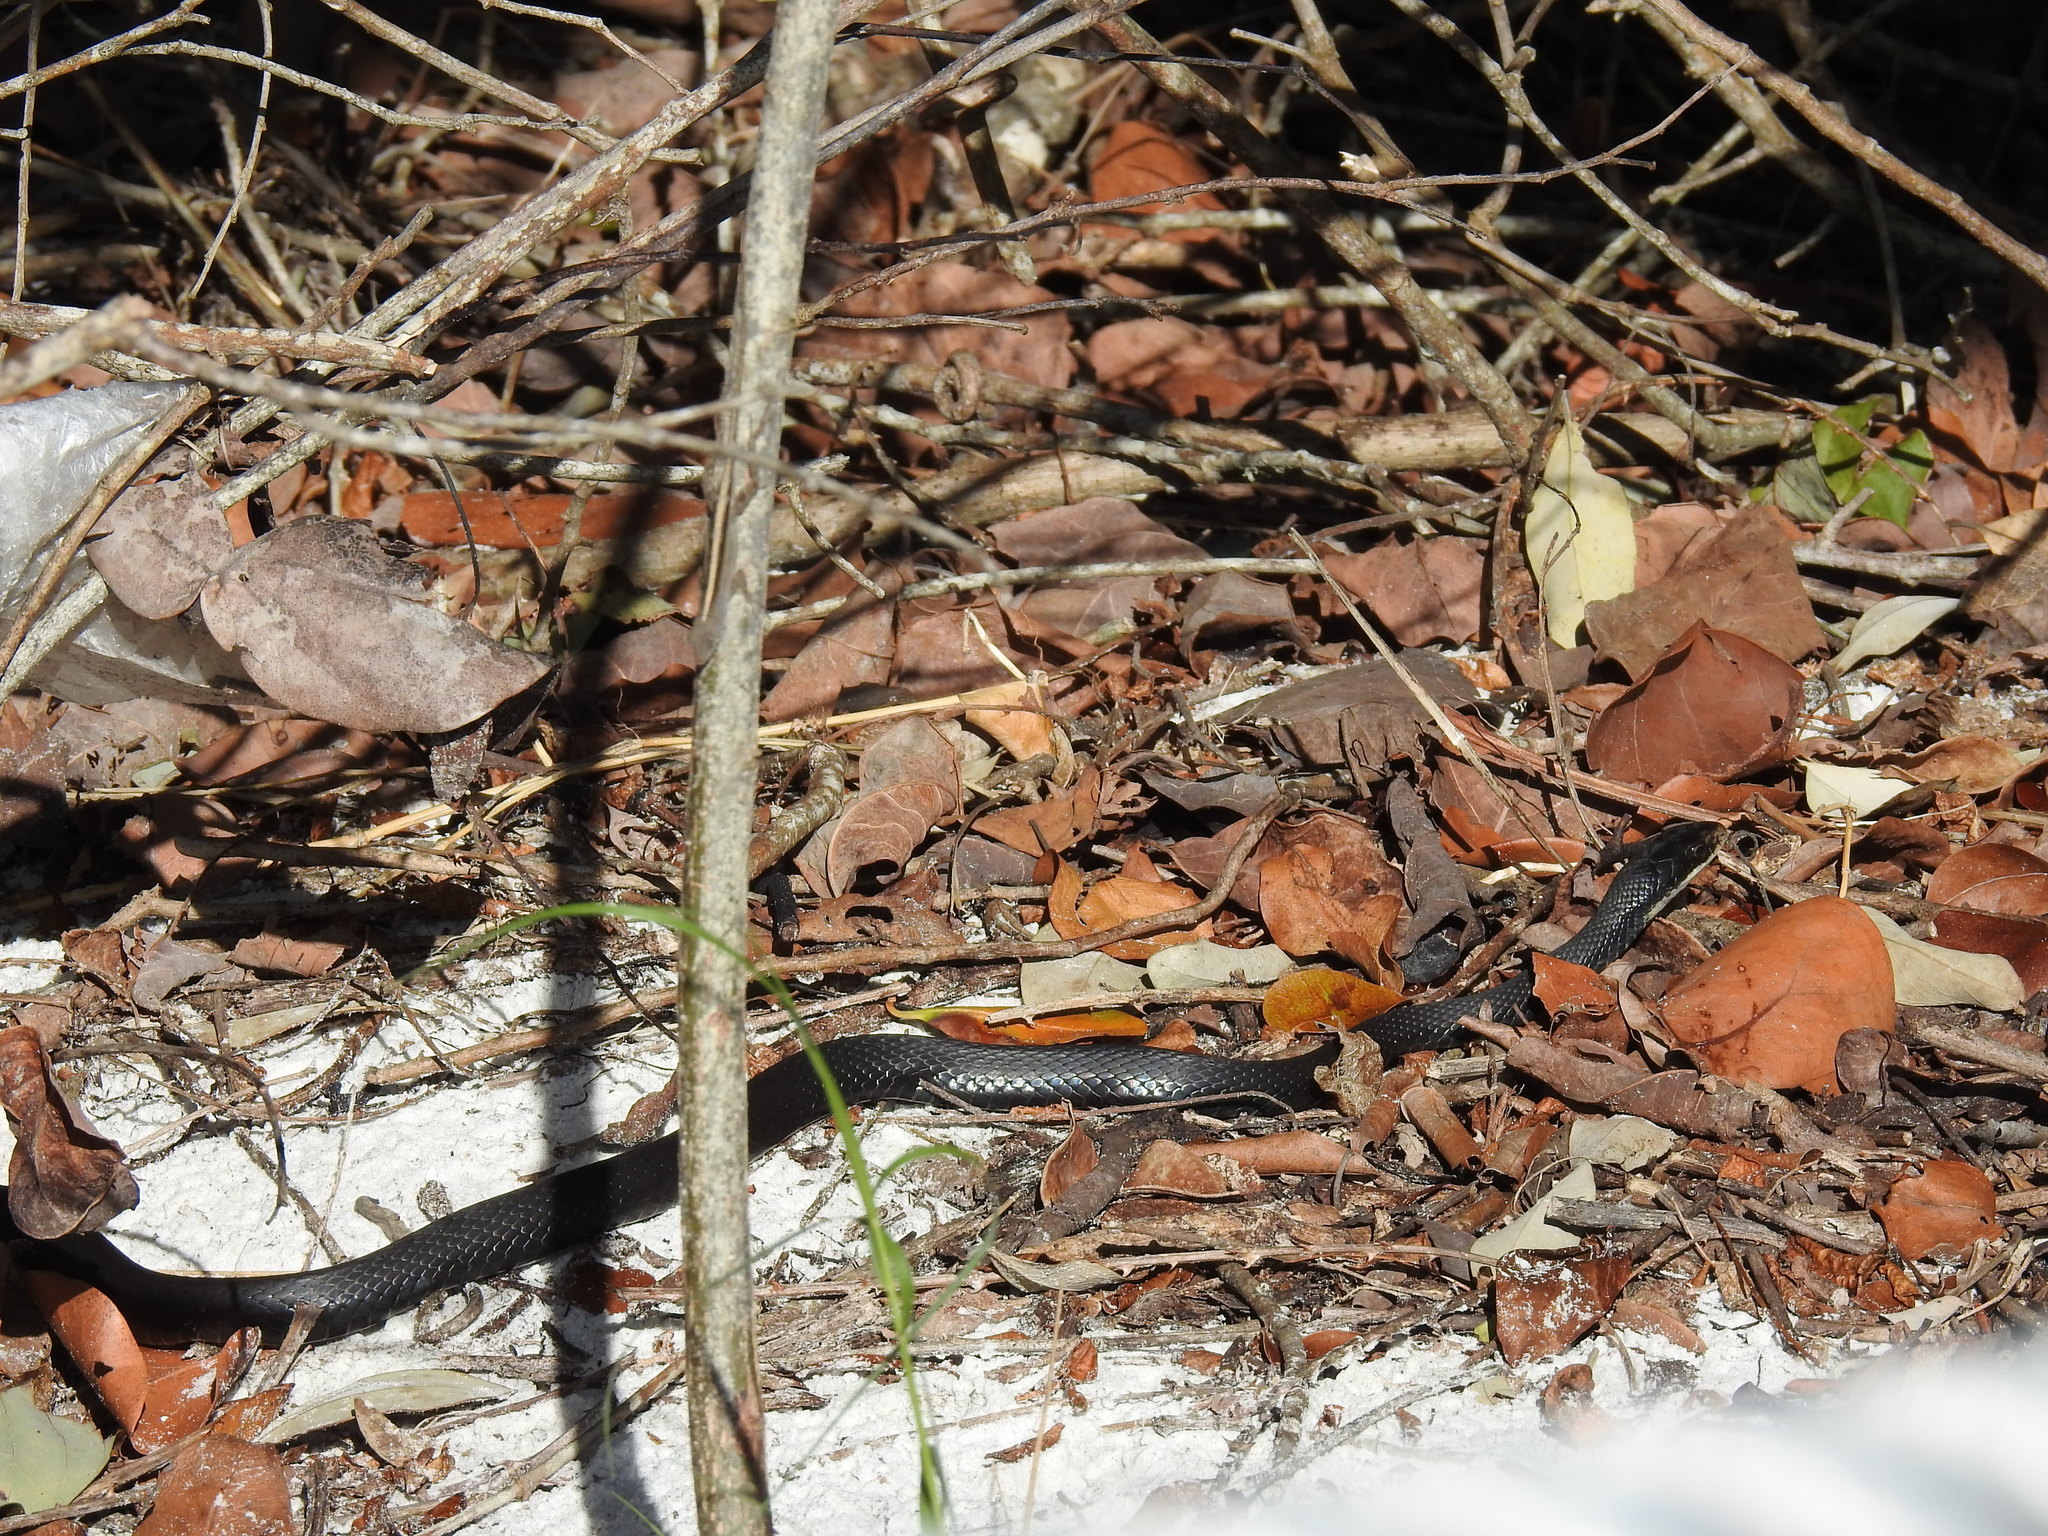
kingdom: Animalia
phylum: Chordata
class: Squamata
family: Colubridae
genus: Coluber
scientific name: Coluber constrictor
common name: Eastern racer
